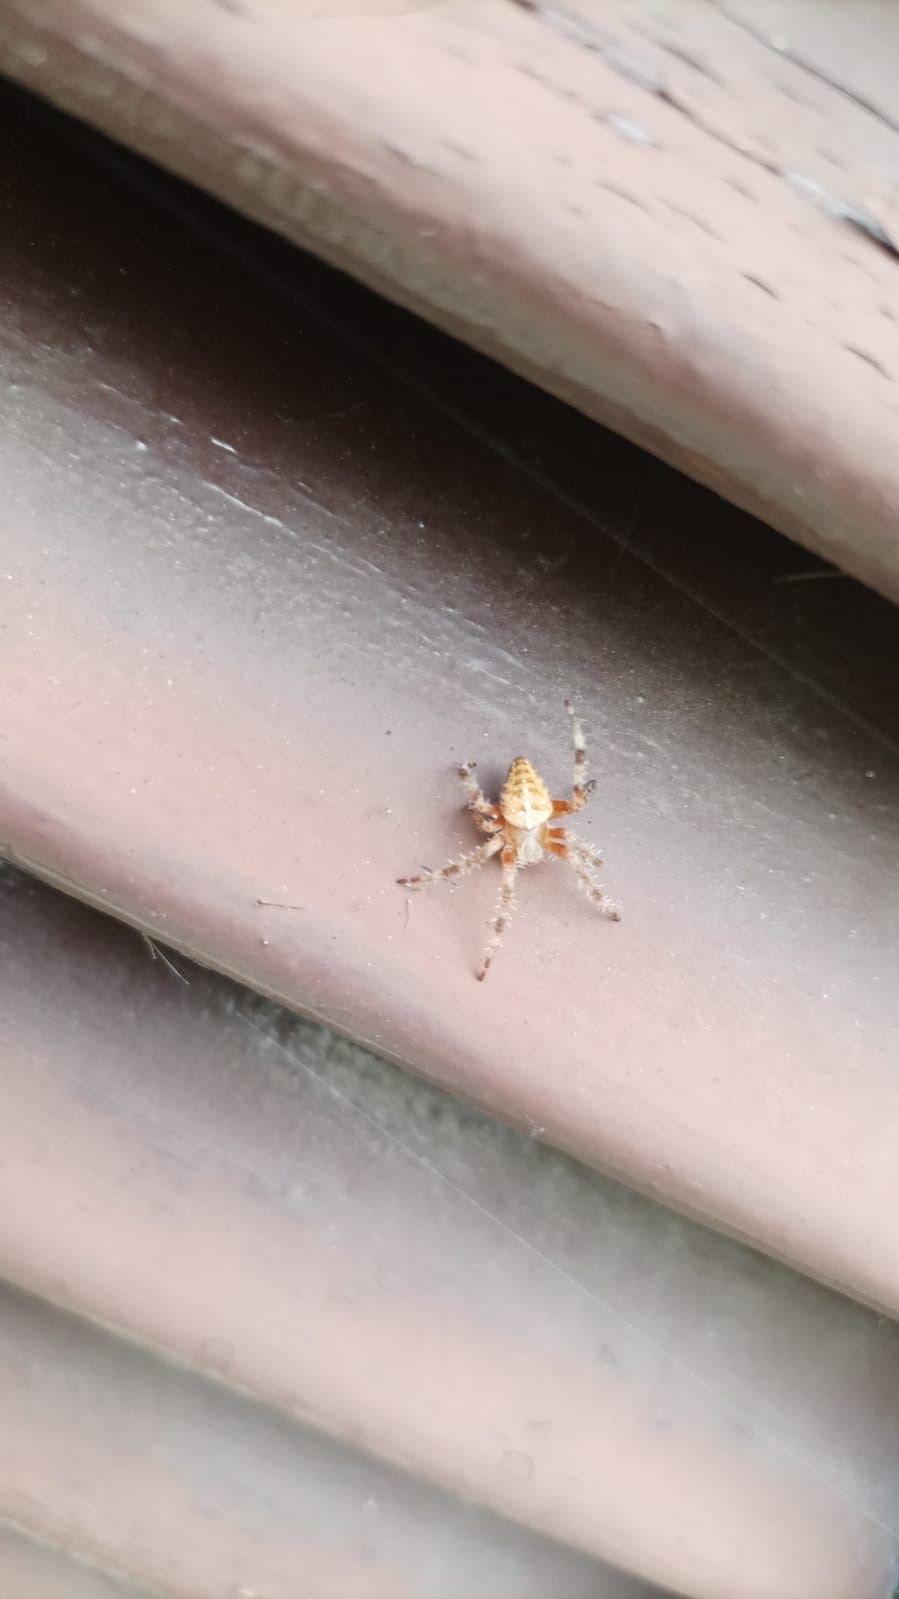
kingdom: Animalia
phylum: Arthropoda
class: Arachnida
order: Araneae
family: Araneidae
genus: Araneus
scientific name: Araneus diadematus
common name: Cross orbweaver
